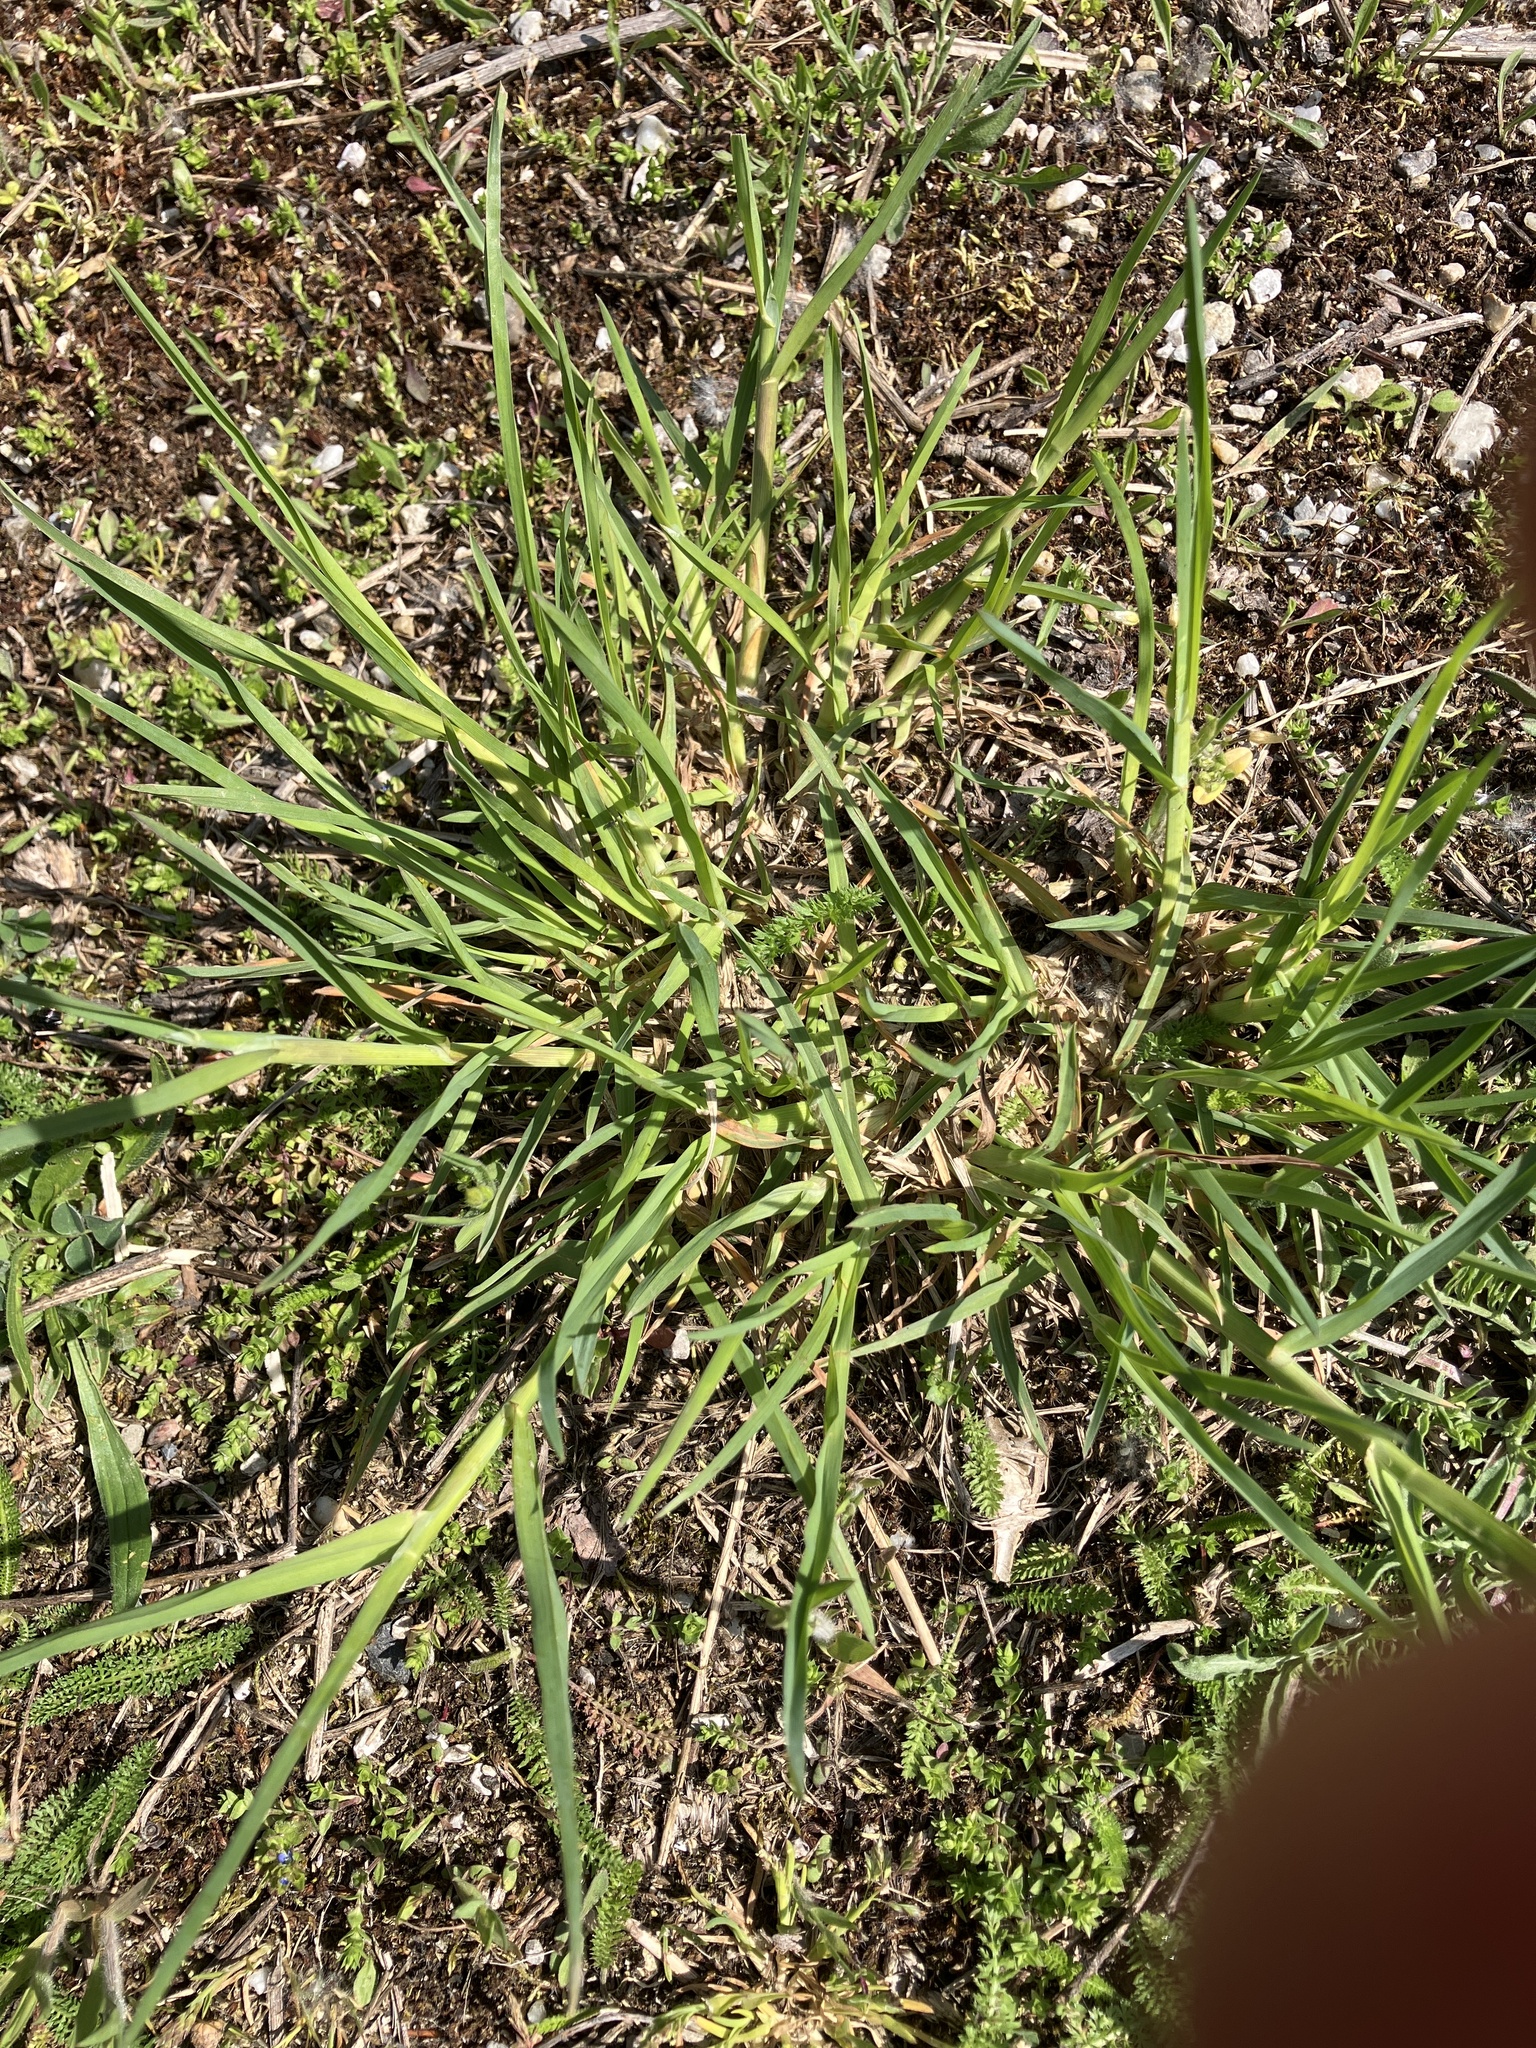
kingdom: Plantae
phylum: Tracheophyta
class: Liliopsida
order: Poales
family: Poaceae
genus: Dactylis
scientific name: Dactylis glomerata
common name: Orchardgrass
